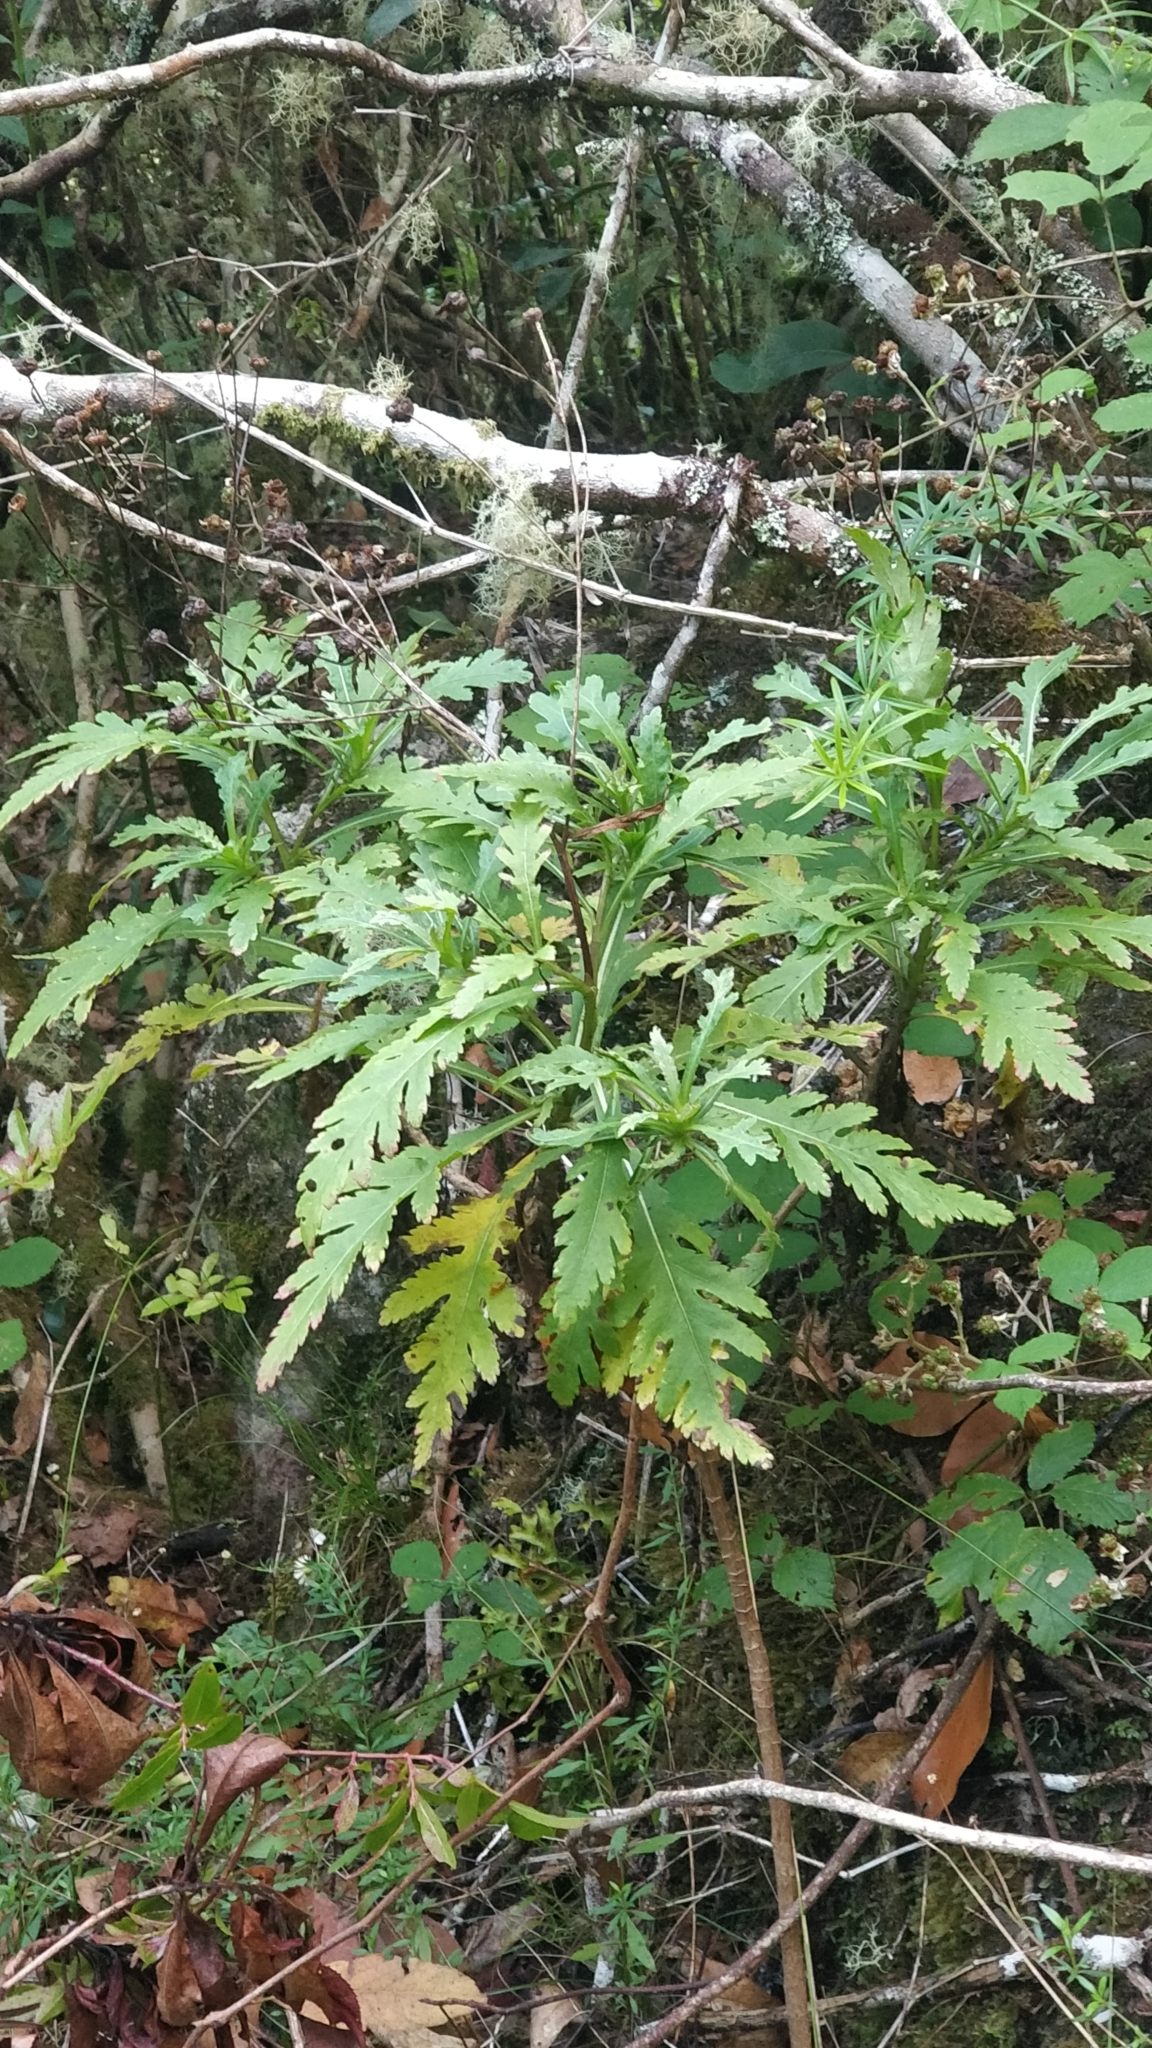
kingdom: Plantae
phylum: Tracheophyta
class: Magnoliopsida
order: Asterales
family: Asteraceae
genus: Argyranthemum
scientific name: Argyranthemum pinnatifidum
